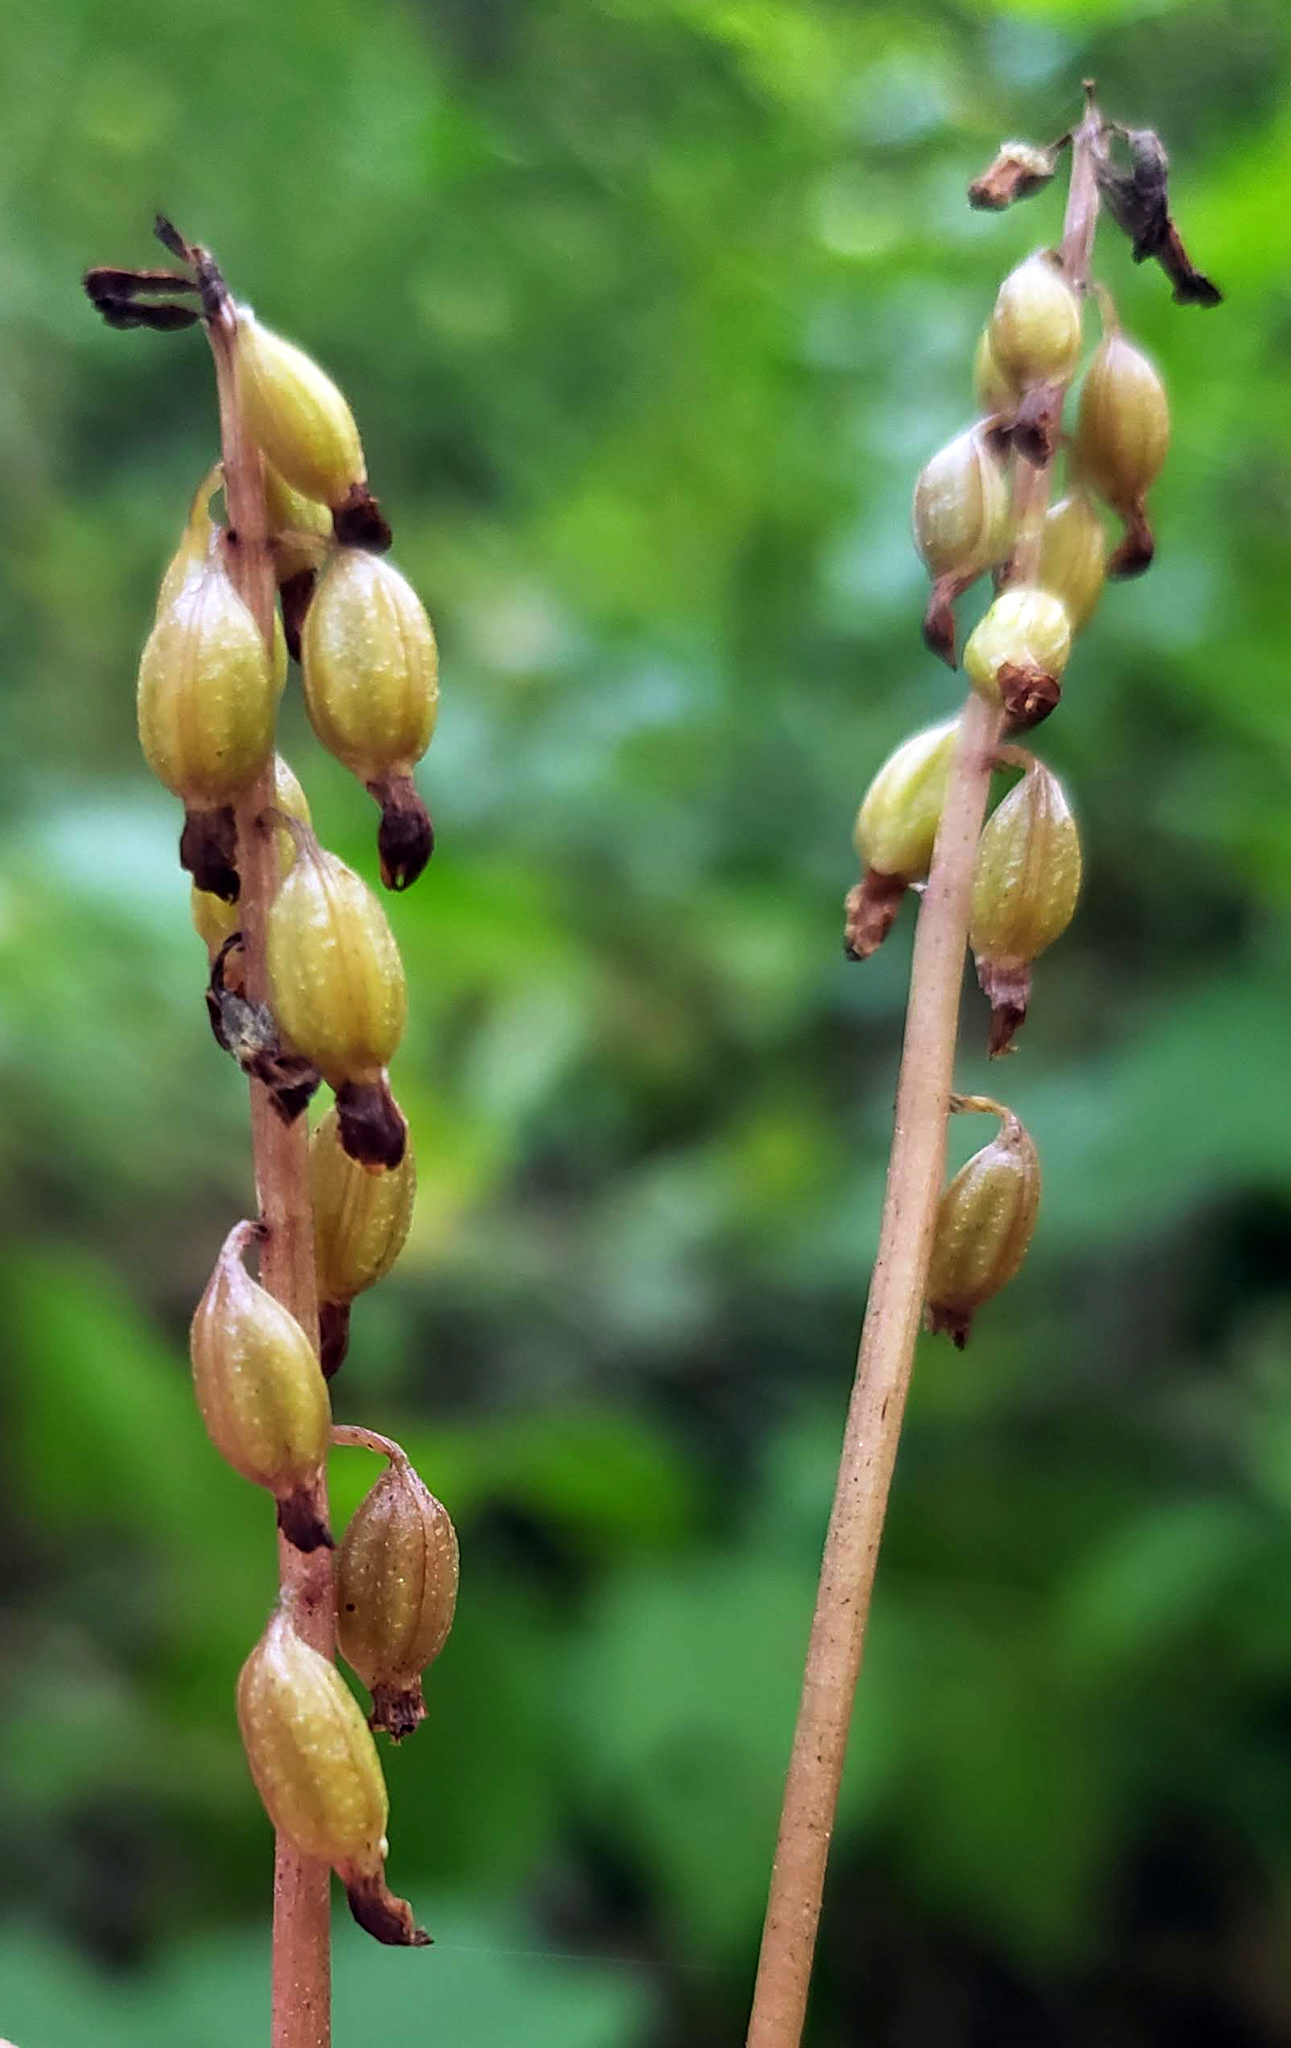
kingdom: Plantae
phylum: Tracheophyta
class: Liliopsida
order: Asparagales
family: Orchidaceae
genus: Corallorhiza
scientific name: Corallorhiza odontorhiza
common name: Autumn coralroot
